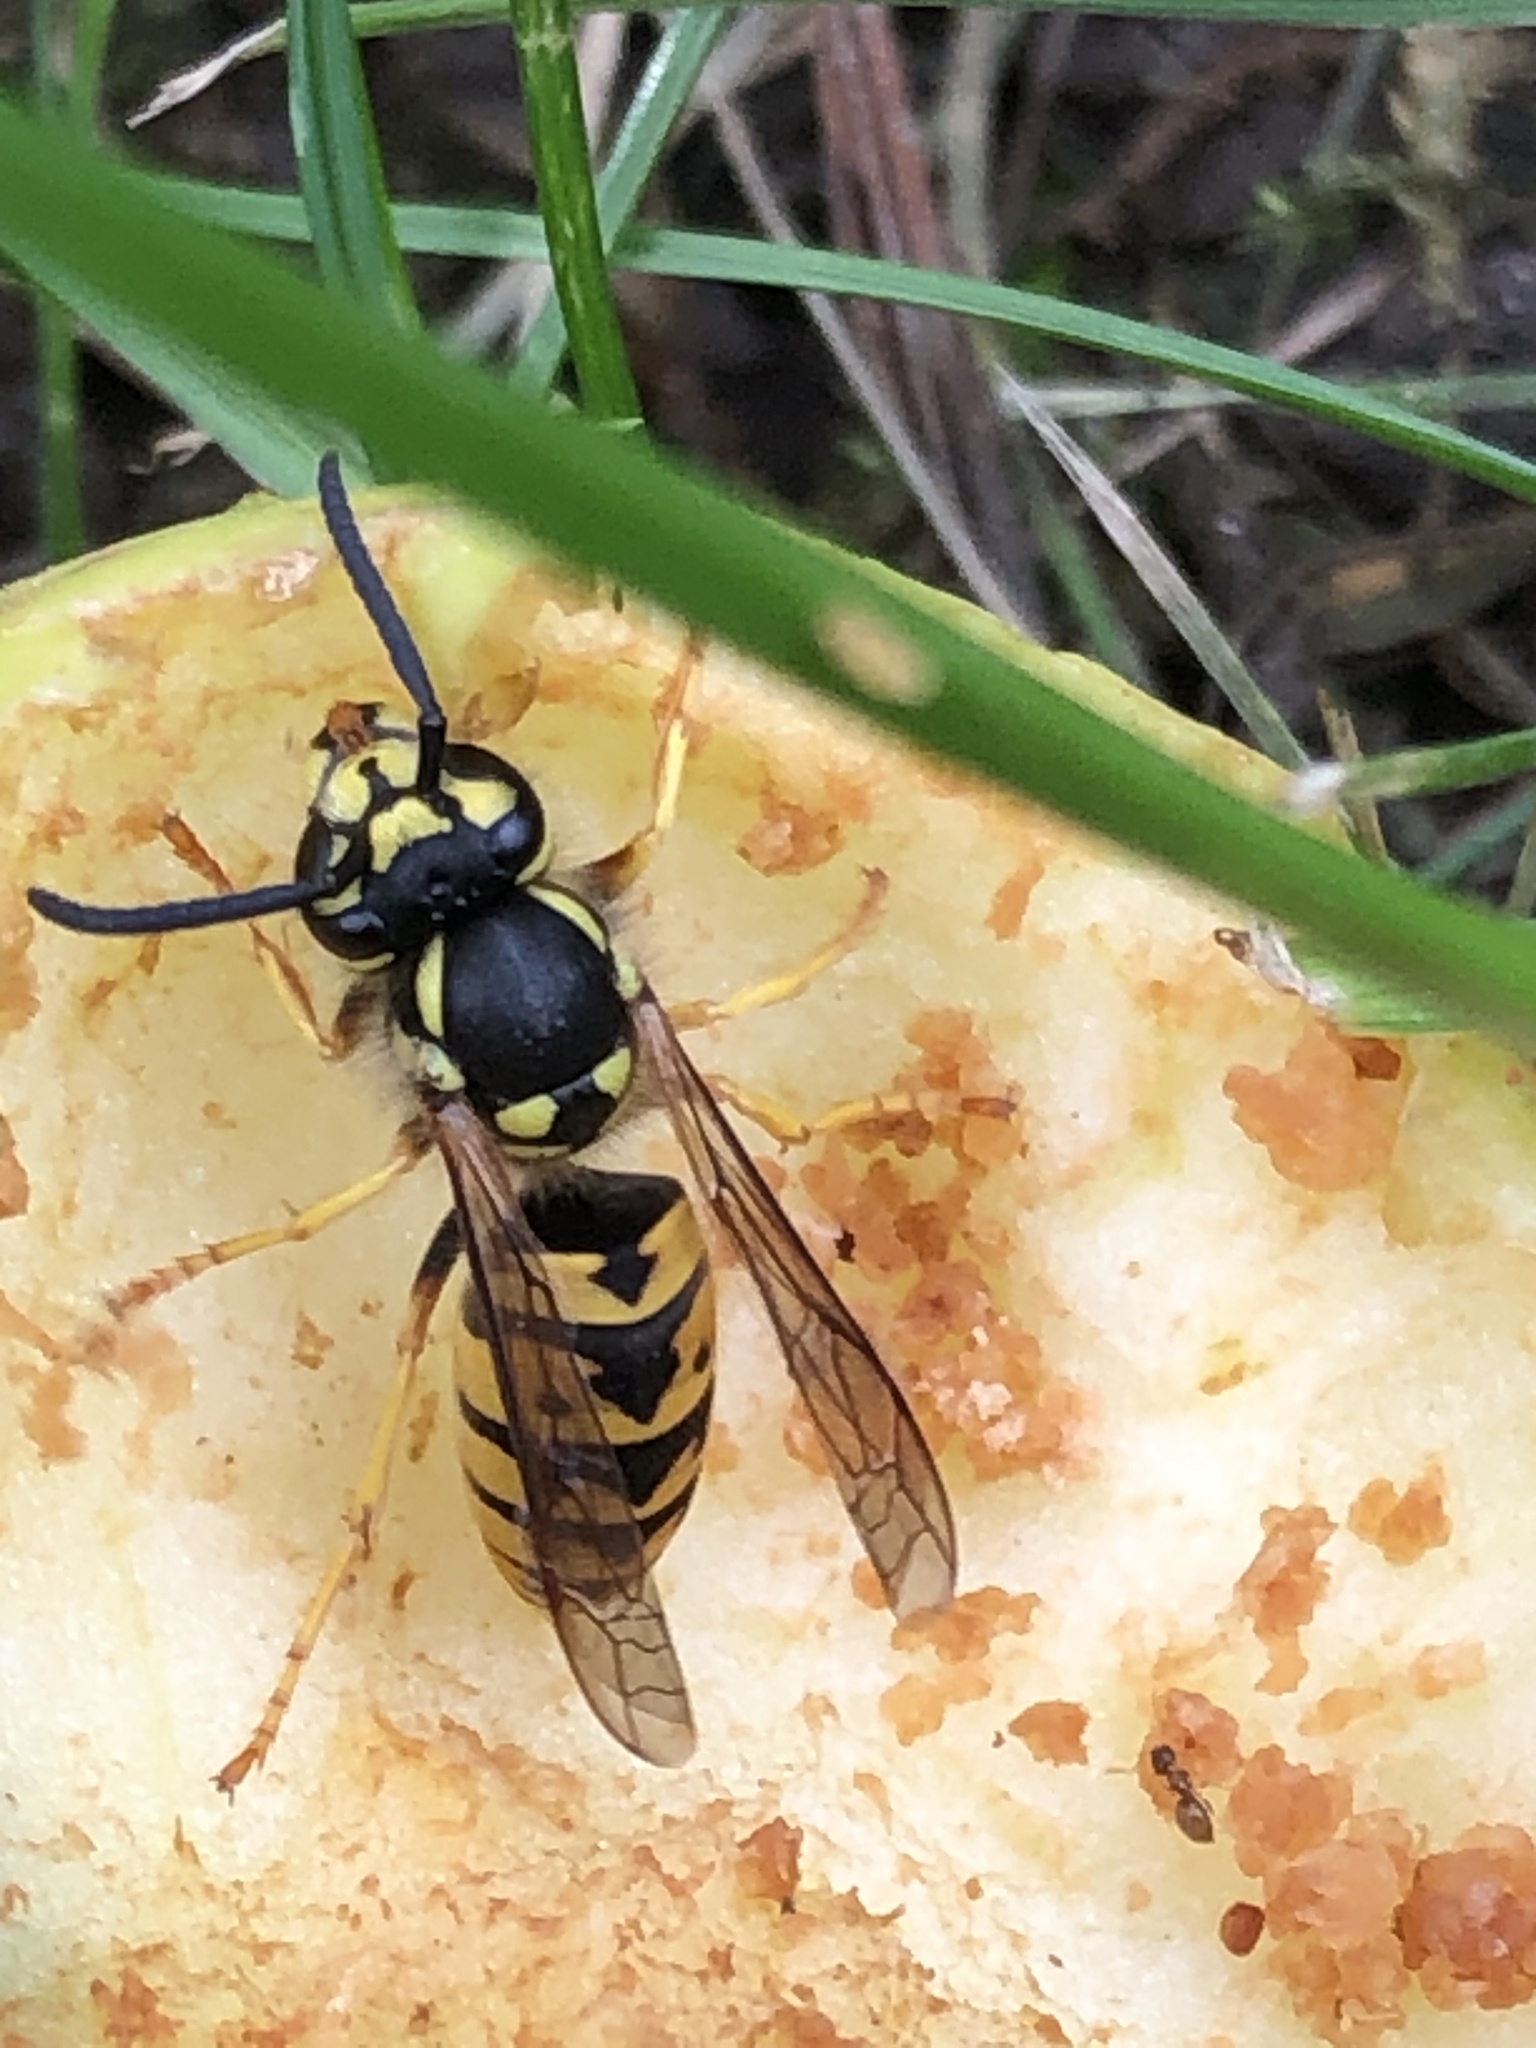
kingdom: Animalia
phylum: Arthropoda
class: Insecta
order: Hymenoptera
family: Vespidae
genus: Vespula
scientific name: Vespula germanica
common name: German wasp
